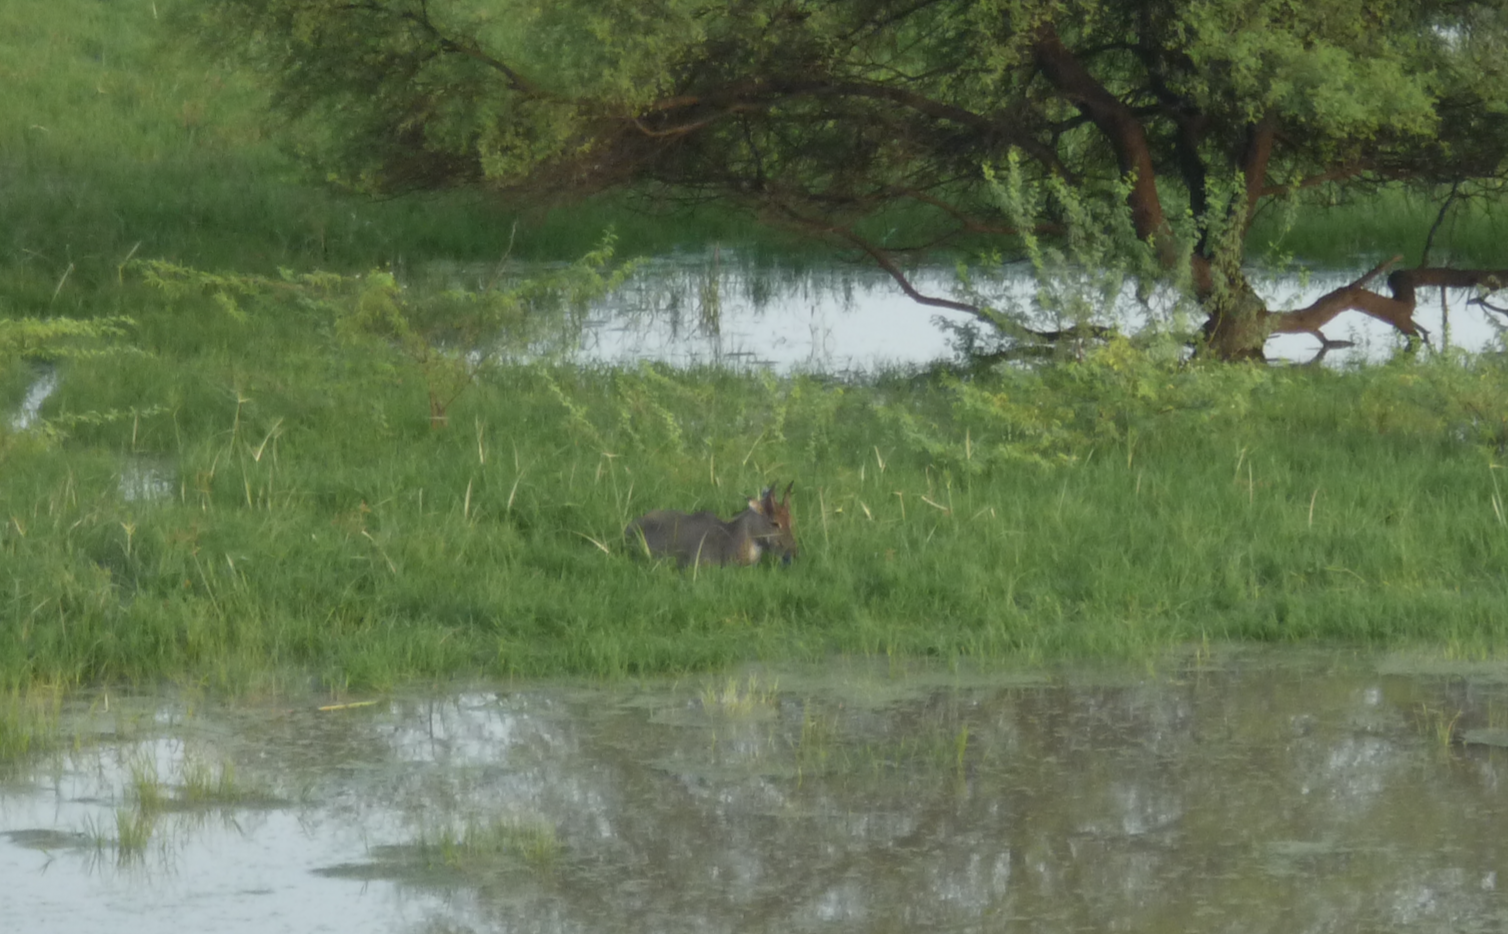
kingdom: Animalia
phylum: Chordata
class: Mammalia
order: Artiodactyla
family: Bovidae
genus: Boselaphus
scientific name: Boselaphus tragocamelus
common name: Nilgai
